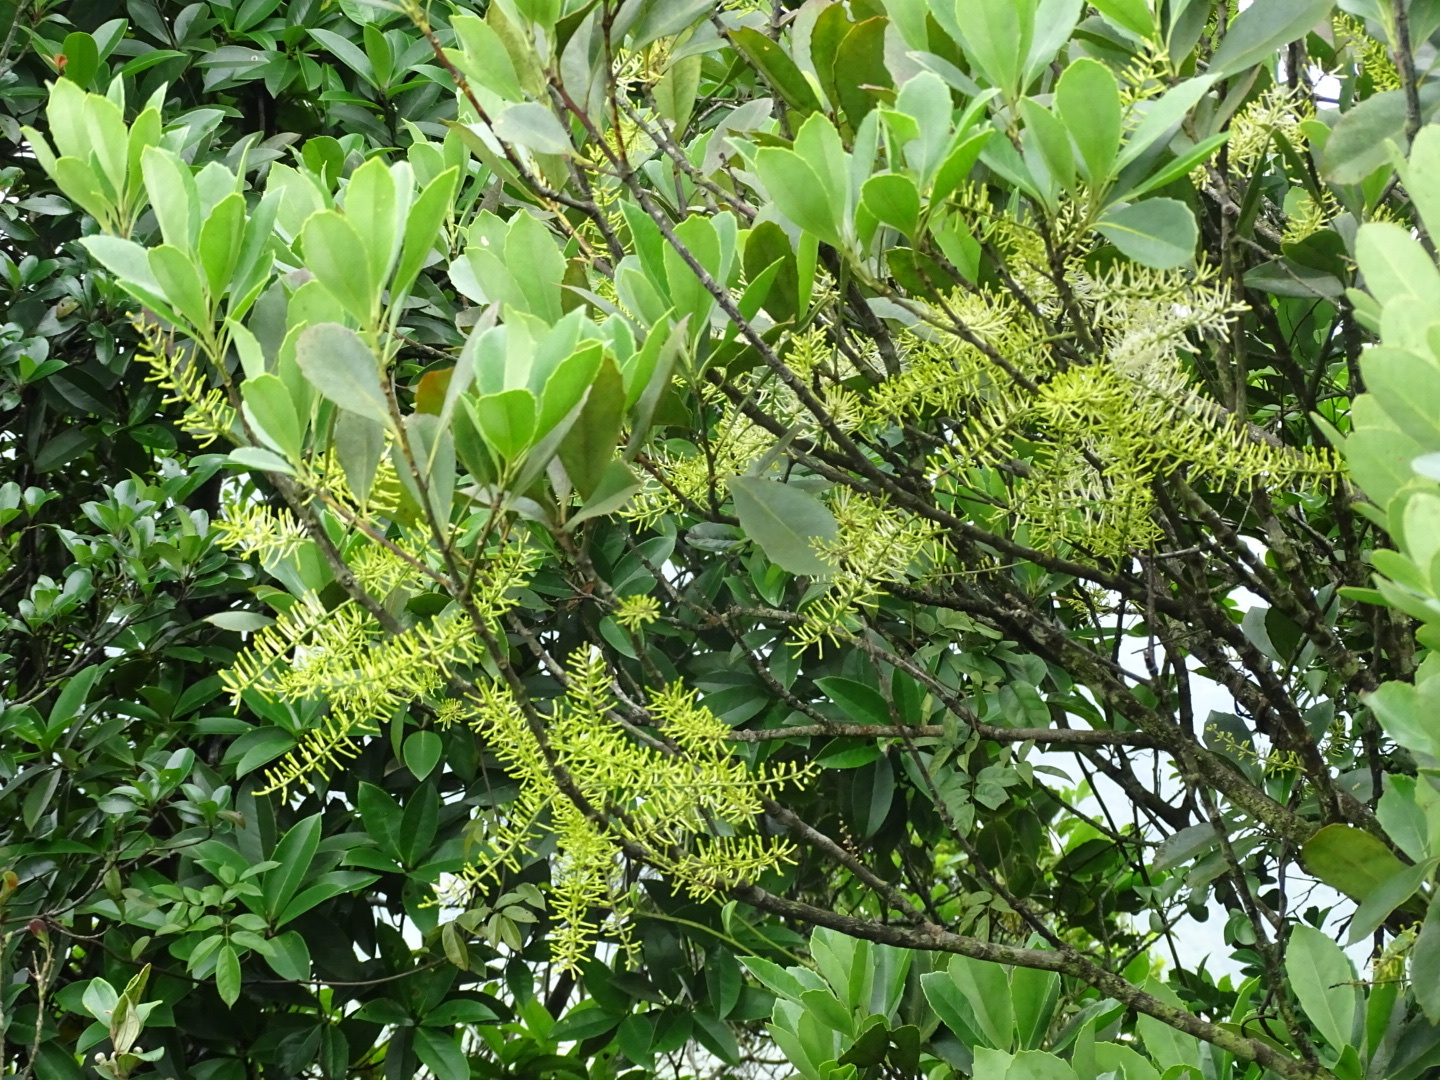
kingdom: Plantae
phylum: Tracheophyta
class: Magnoliopsida
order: Proteales
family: Proteaceae
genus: Helicia
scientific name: Helicia reticulata
